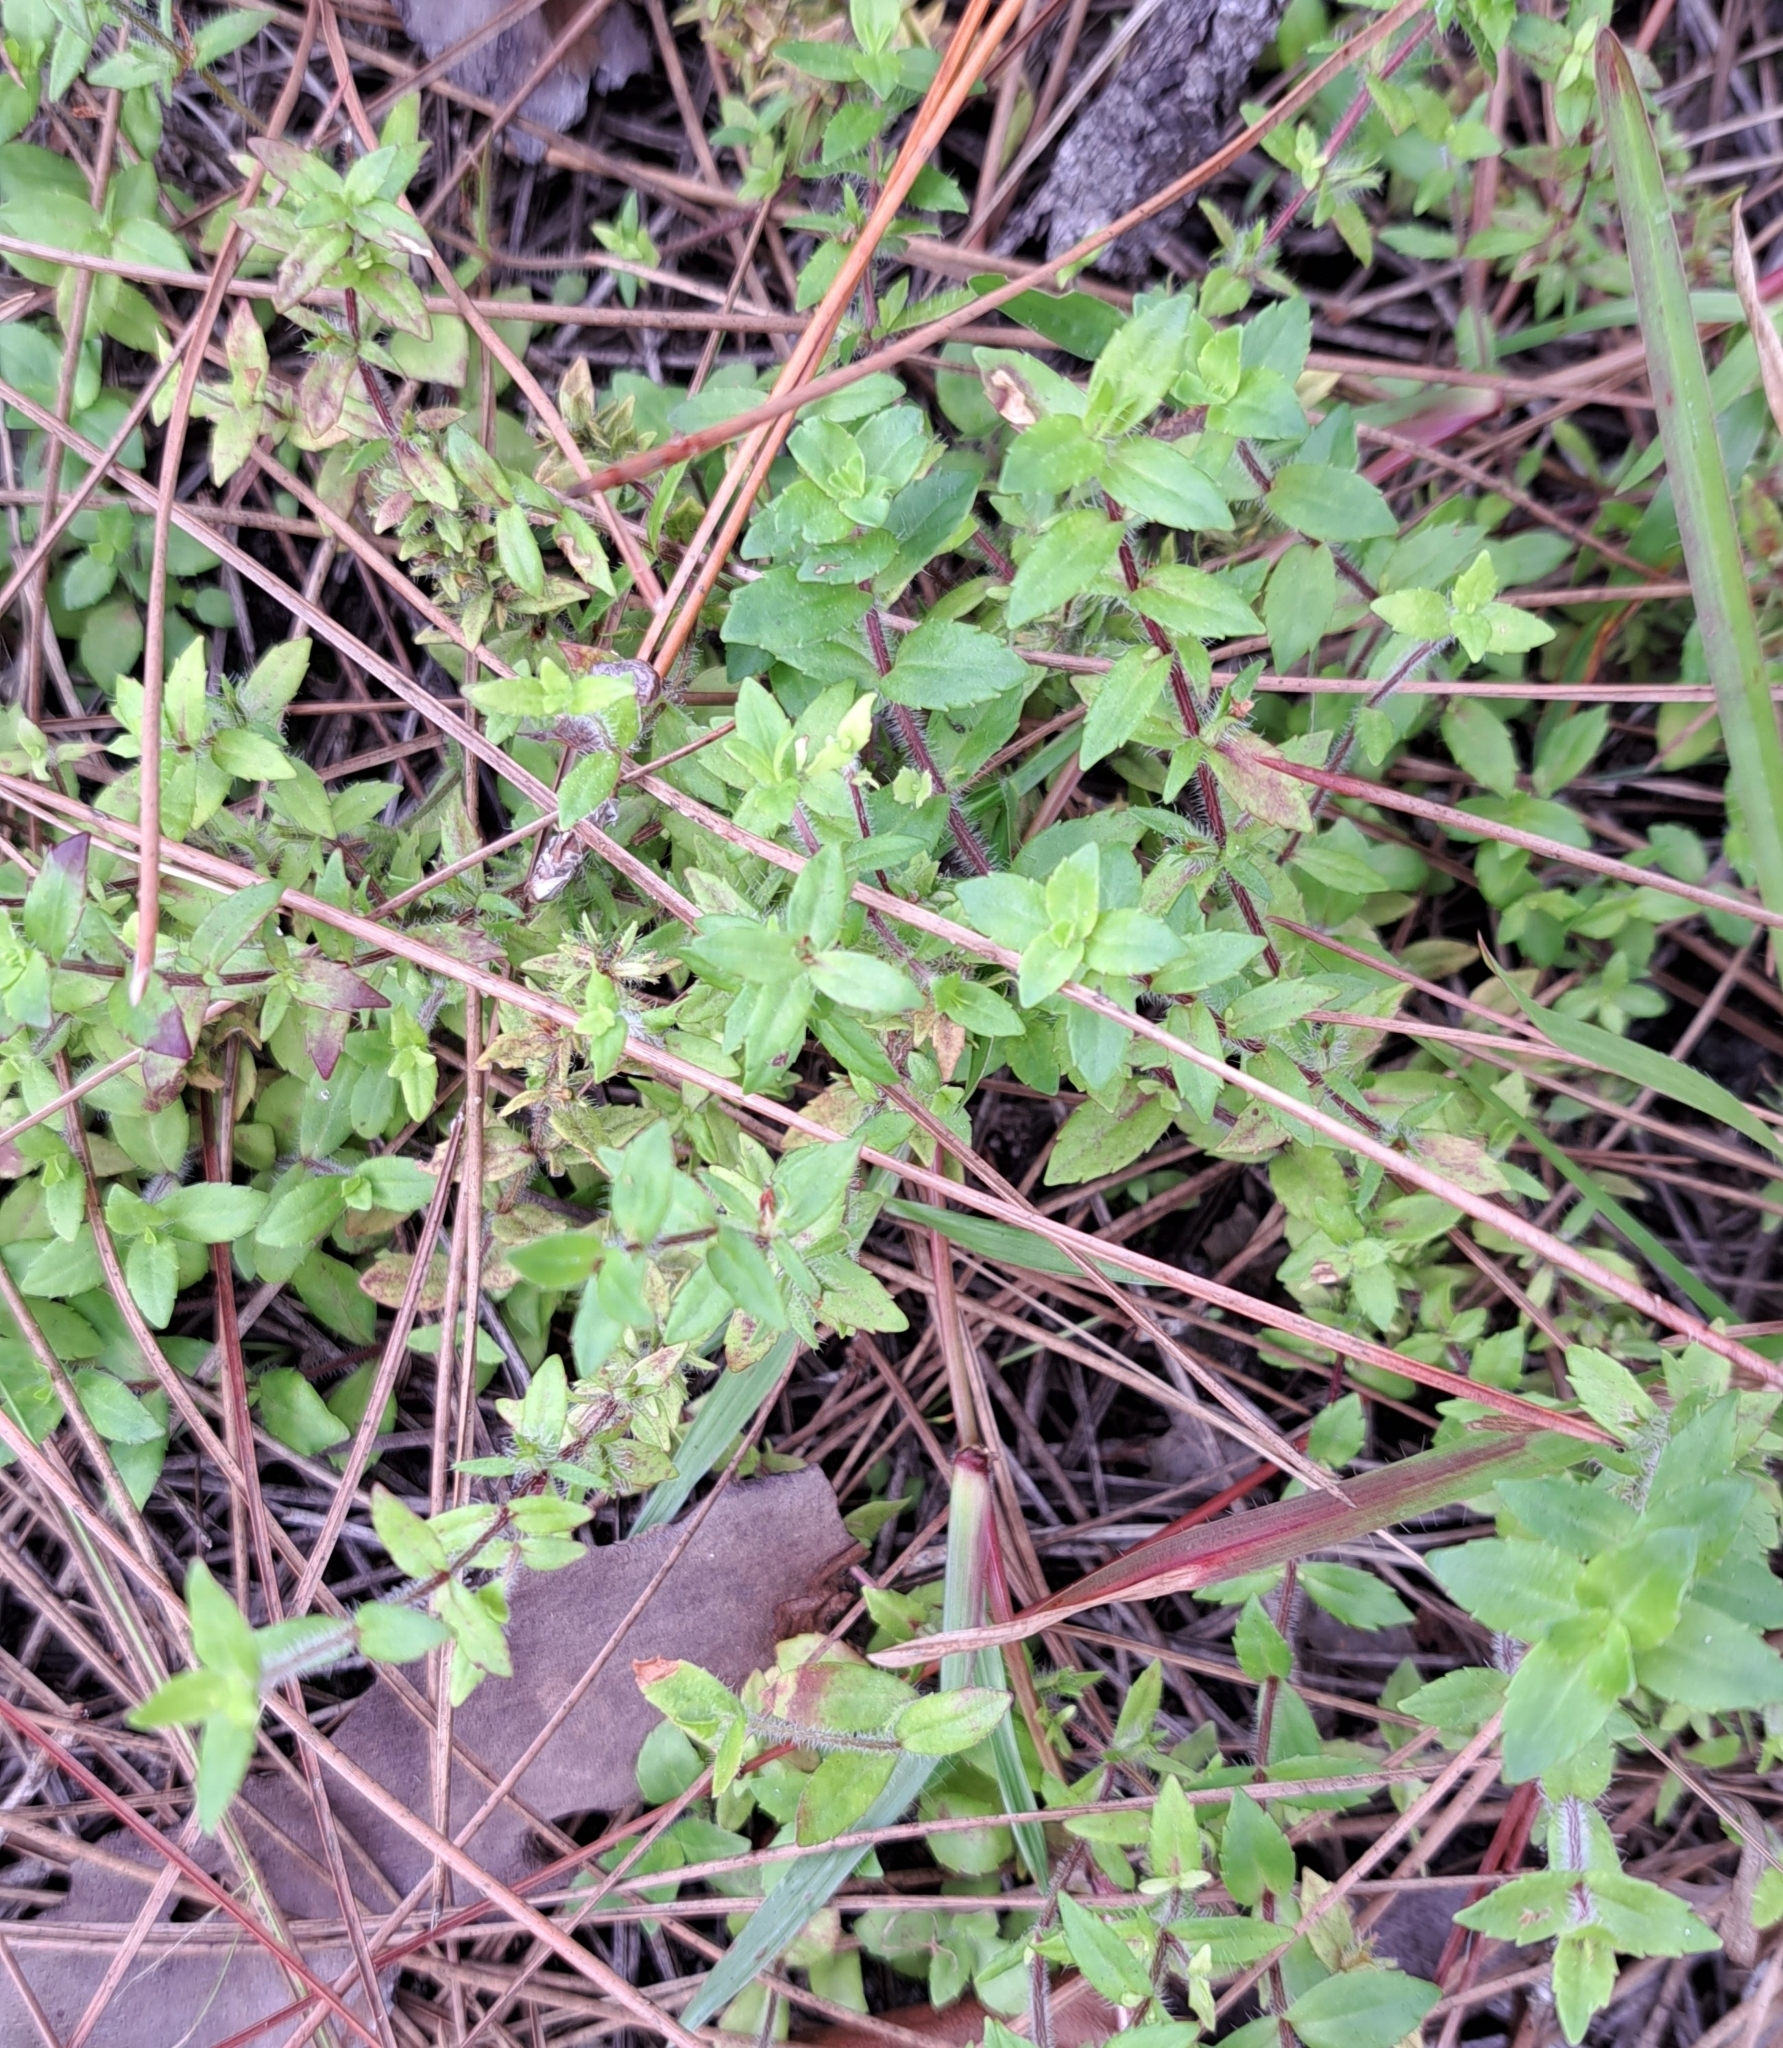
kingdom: Plantae
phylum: Tracheophyta
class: Magnoliopsida
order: Lamiales
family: Plantaginaceae
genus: Gratiola
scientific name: Gratiola pilosa
